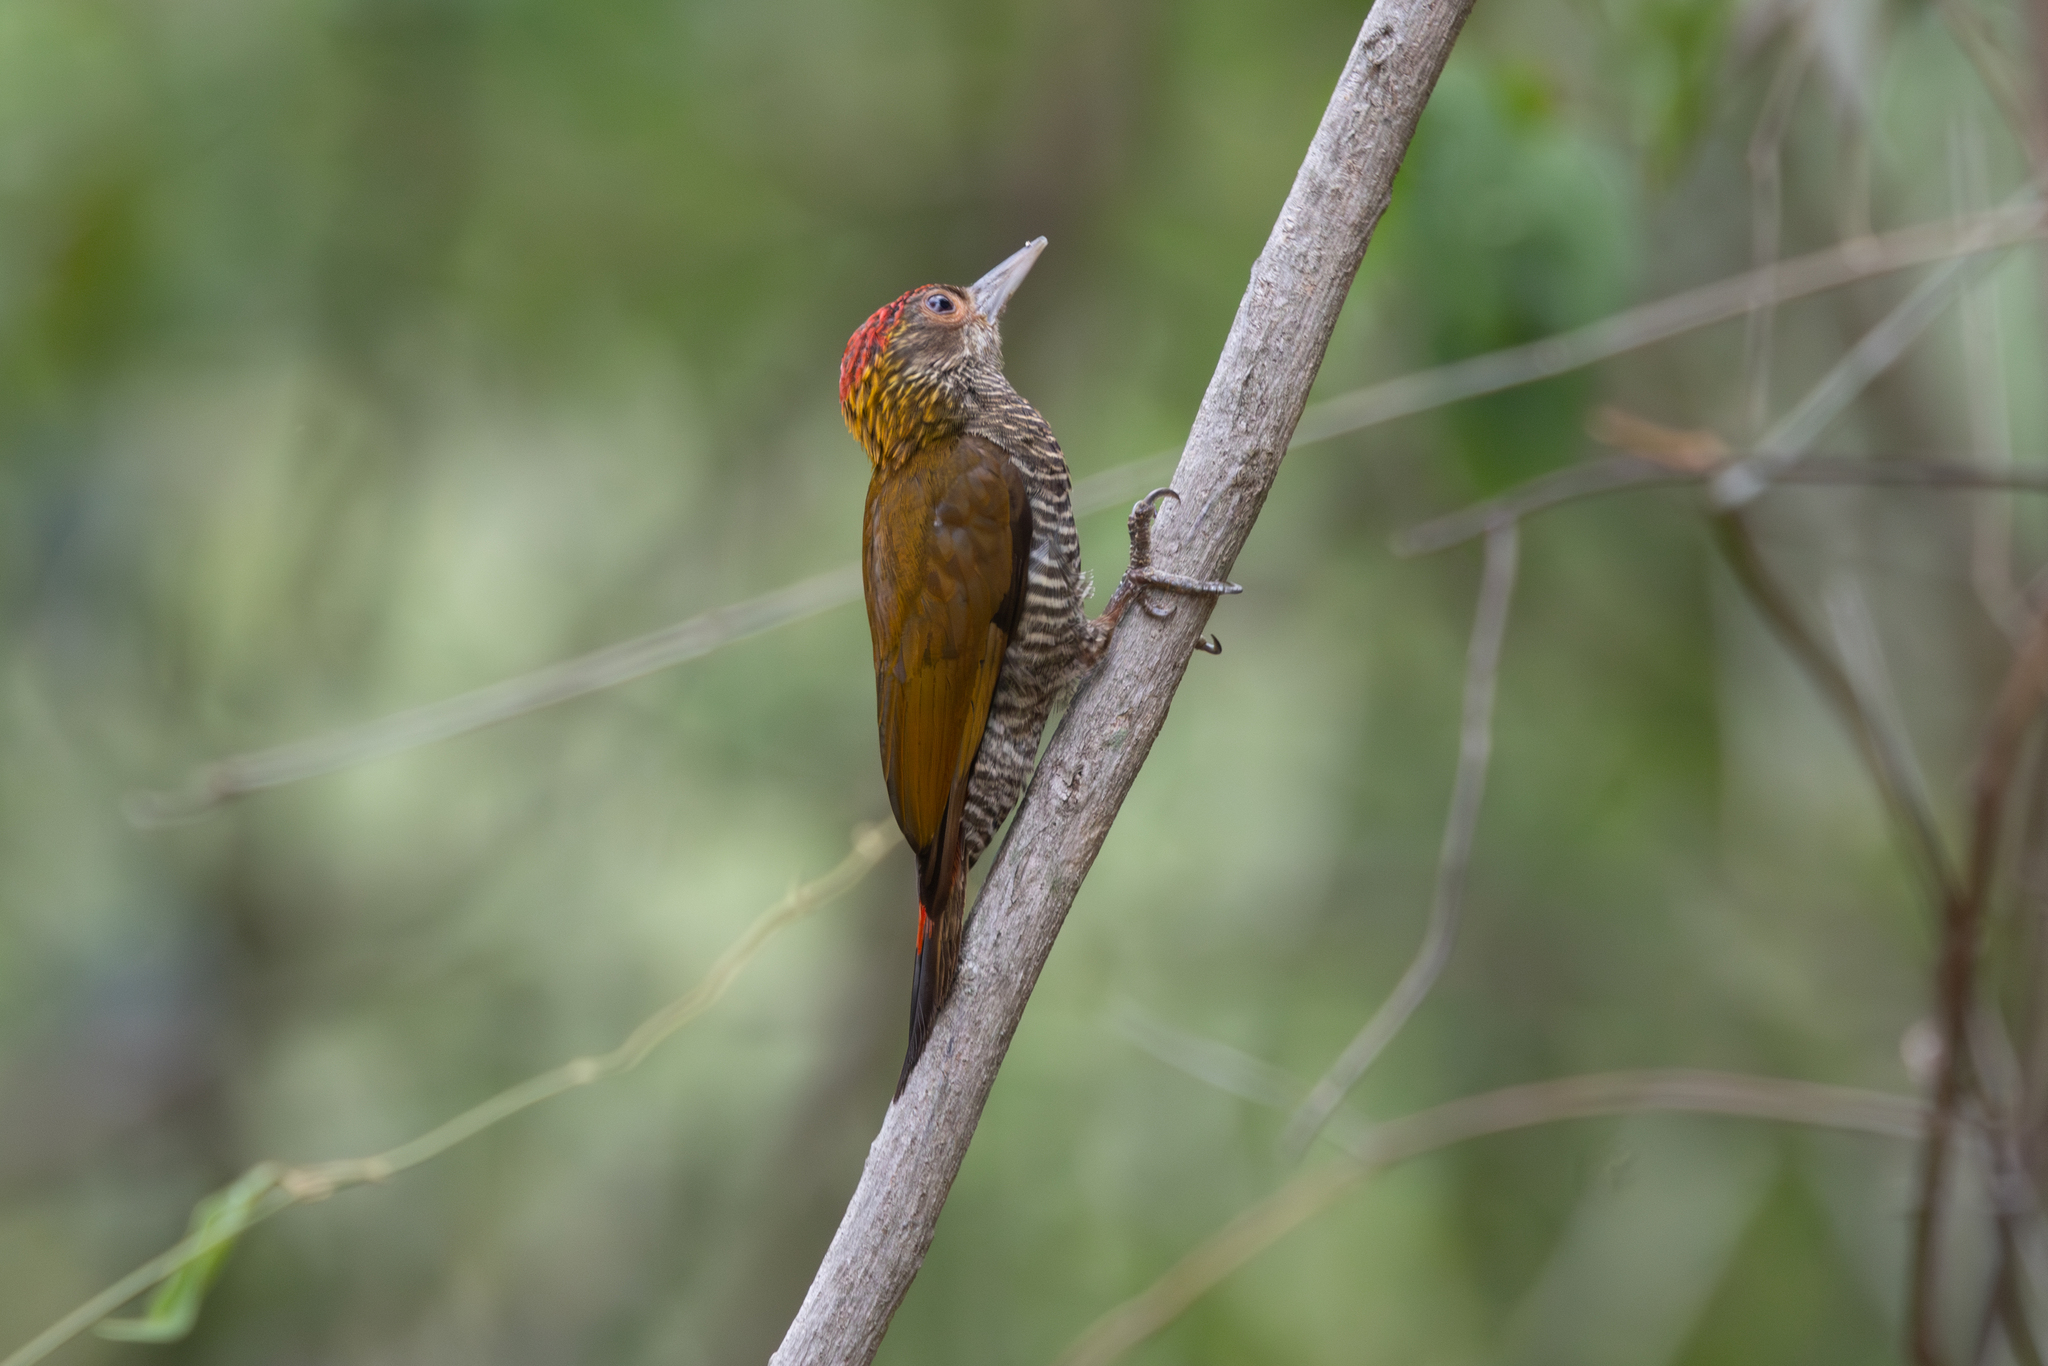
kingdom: Animalia
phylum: Chordata
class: Aves
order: Piciformes
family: Picidae
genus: Veniliornis
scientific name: Veniliornis kirkii
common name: Red-rumped woodpecker
